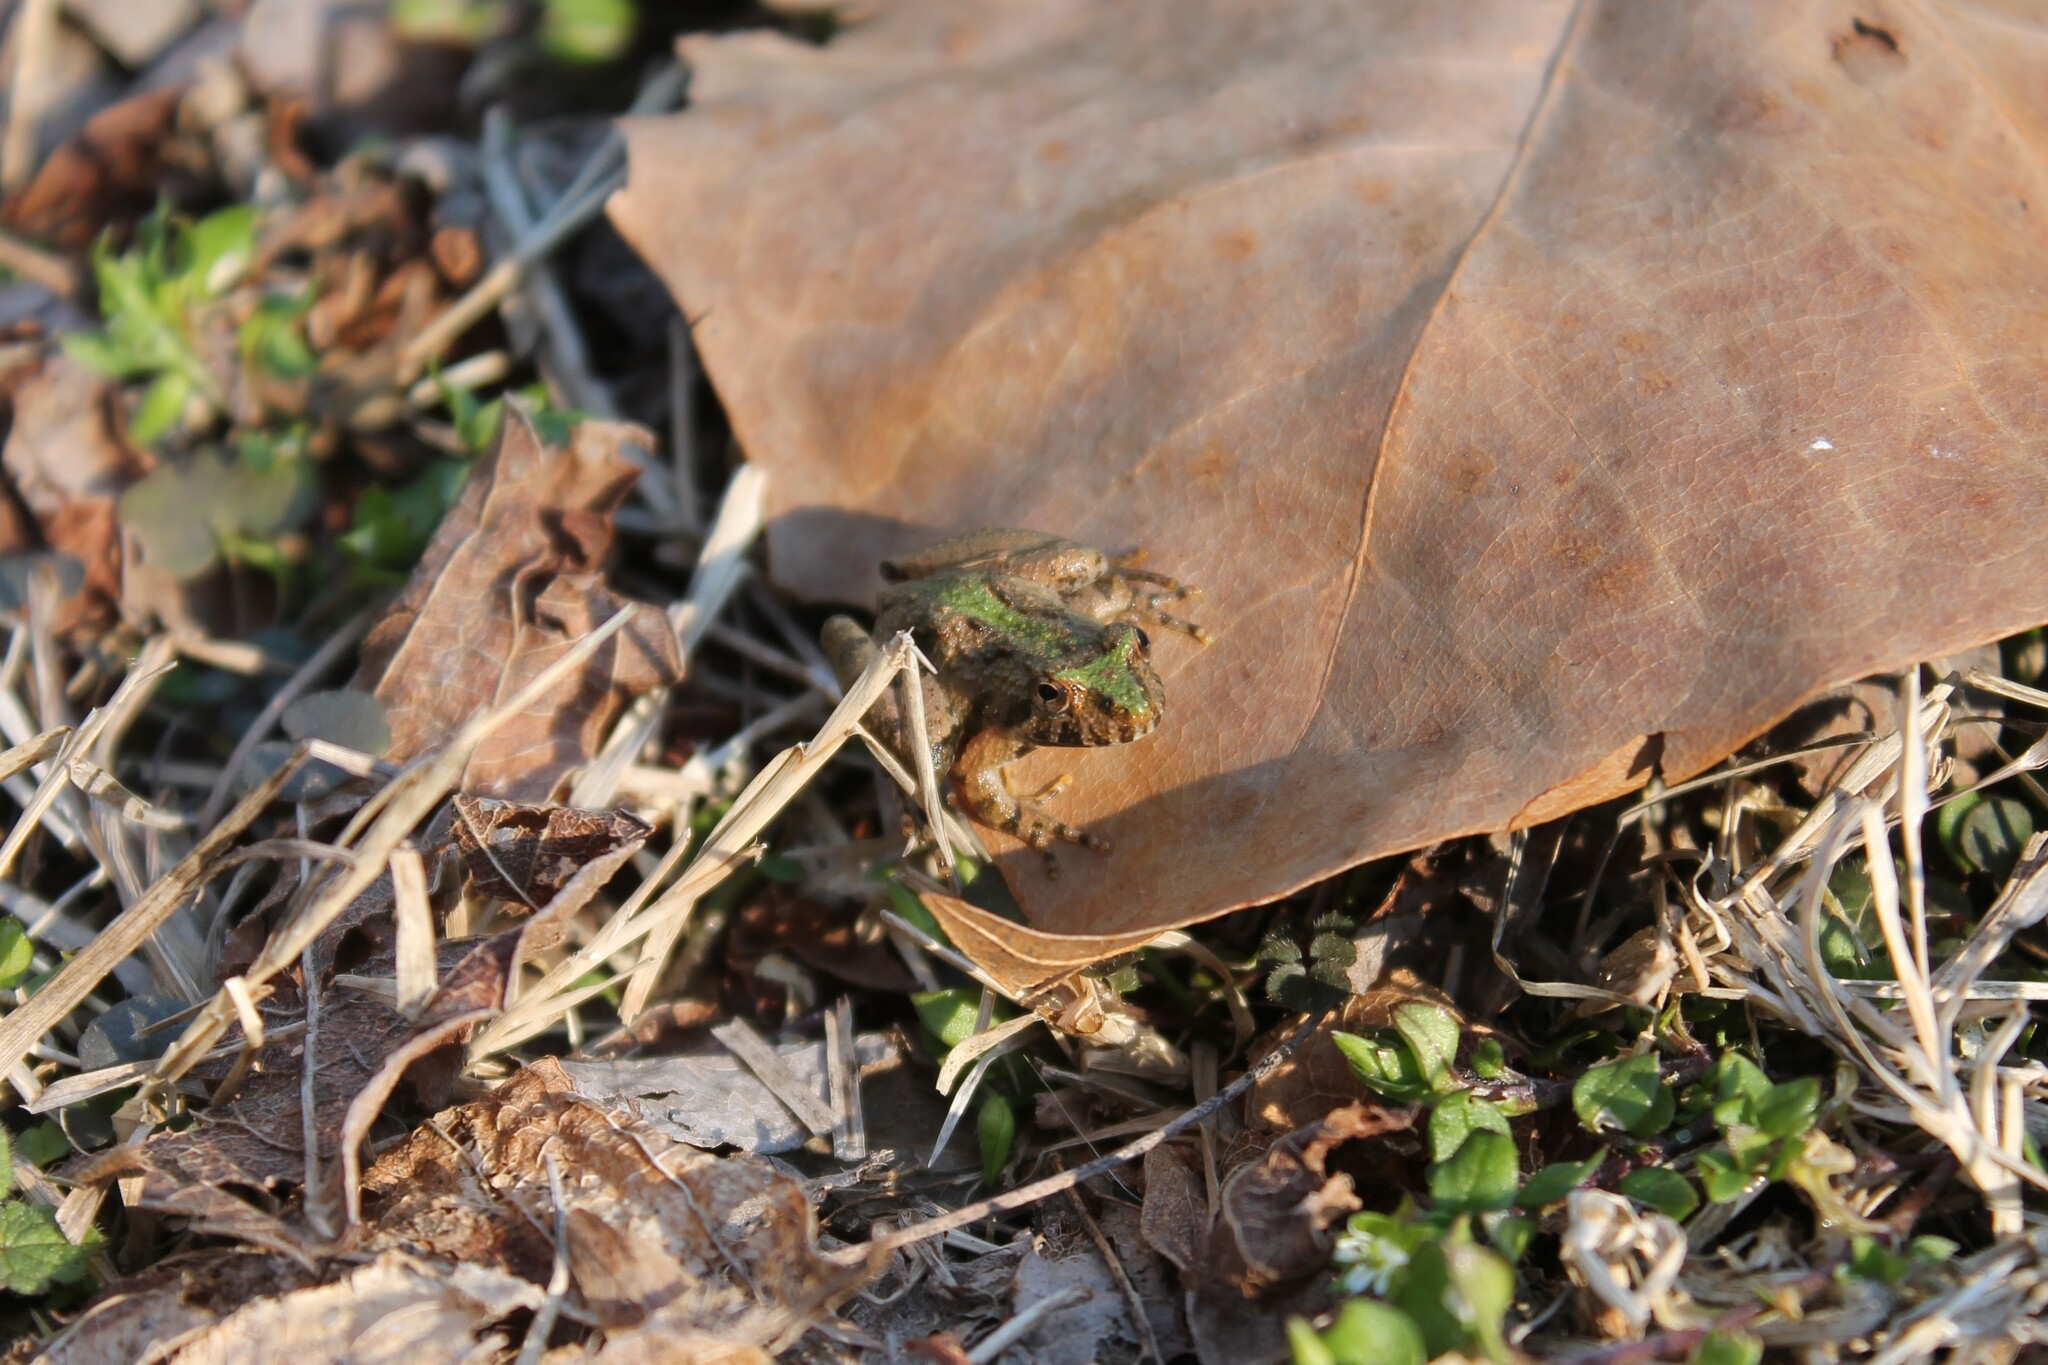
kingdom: Animalia
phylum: Chordata
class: Amphibia
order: Anura
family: Hylidae
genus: Acris
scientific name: Acris crepitans
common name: Northern cricket frog
